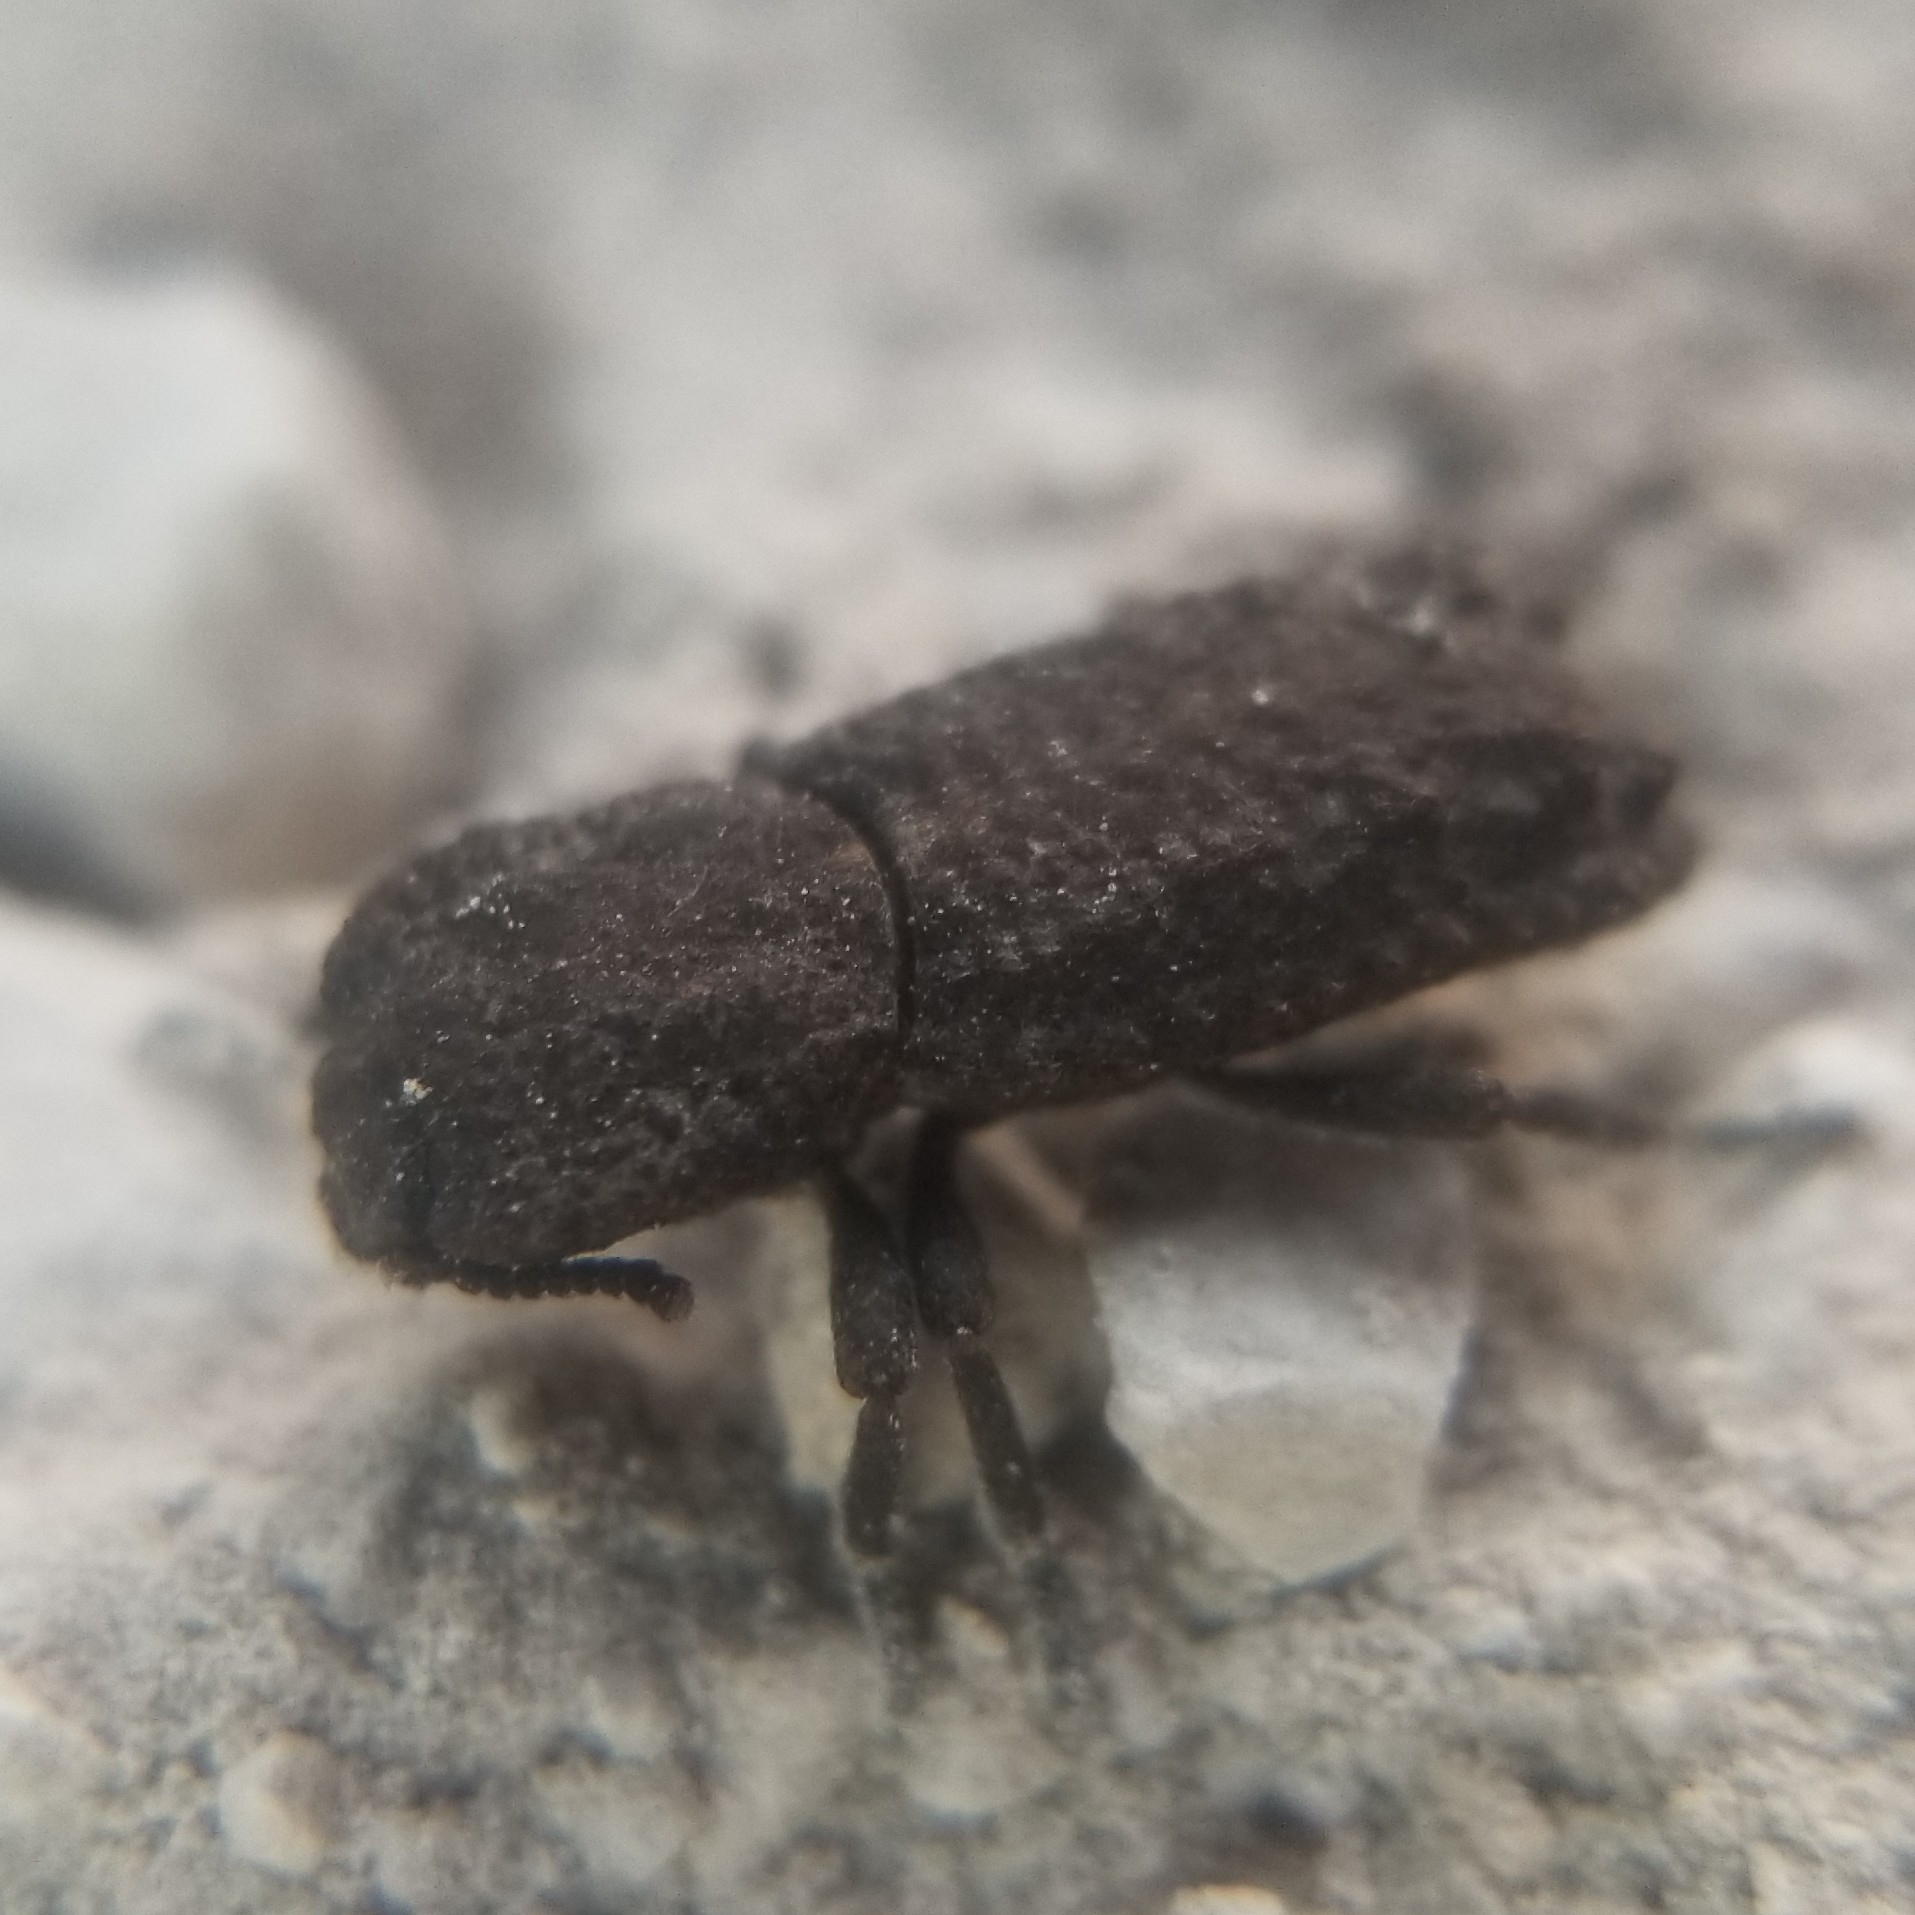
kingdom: Animalia
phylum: Arthropoda
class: Insecta
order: Coleoptera
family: Zopheridae
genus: Phloeodes
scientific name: Phloeodes plicatus
